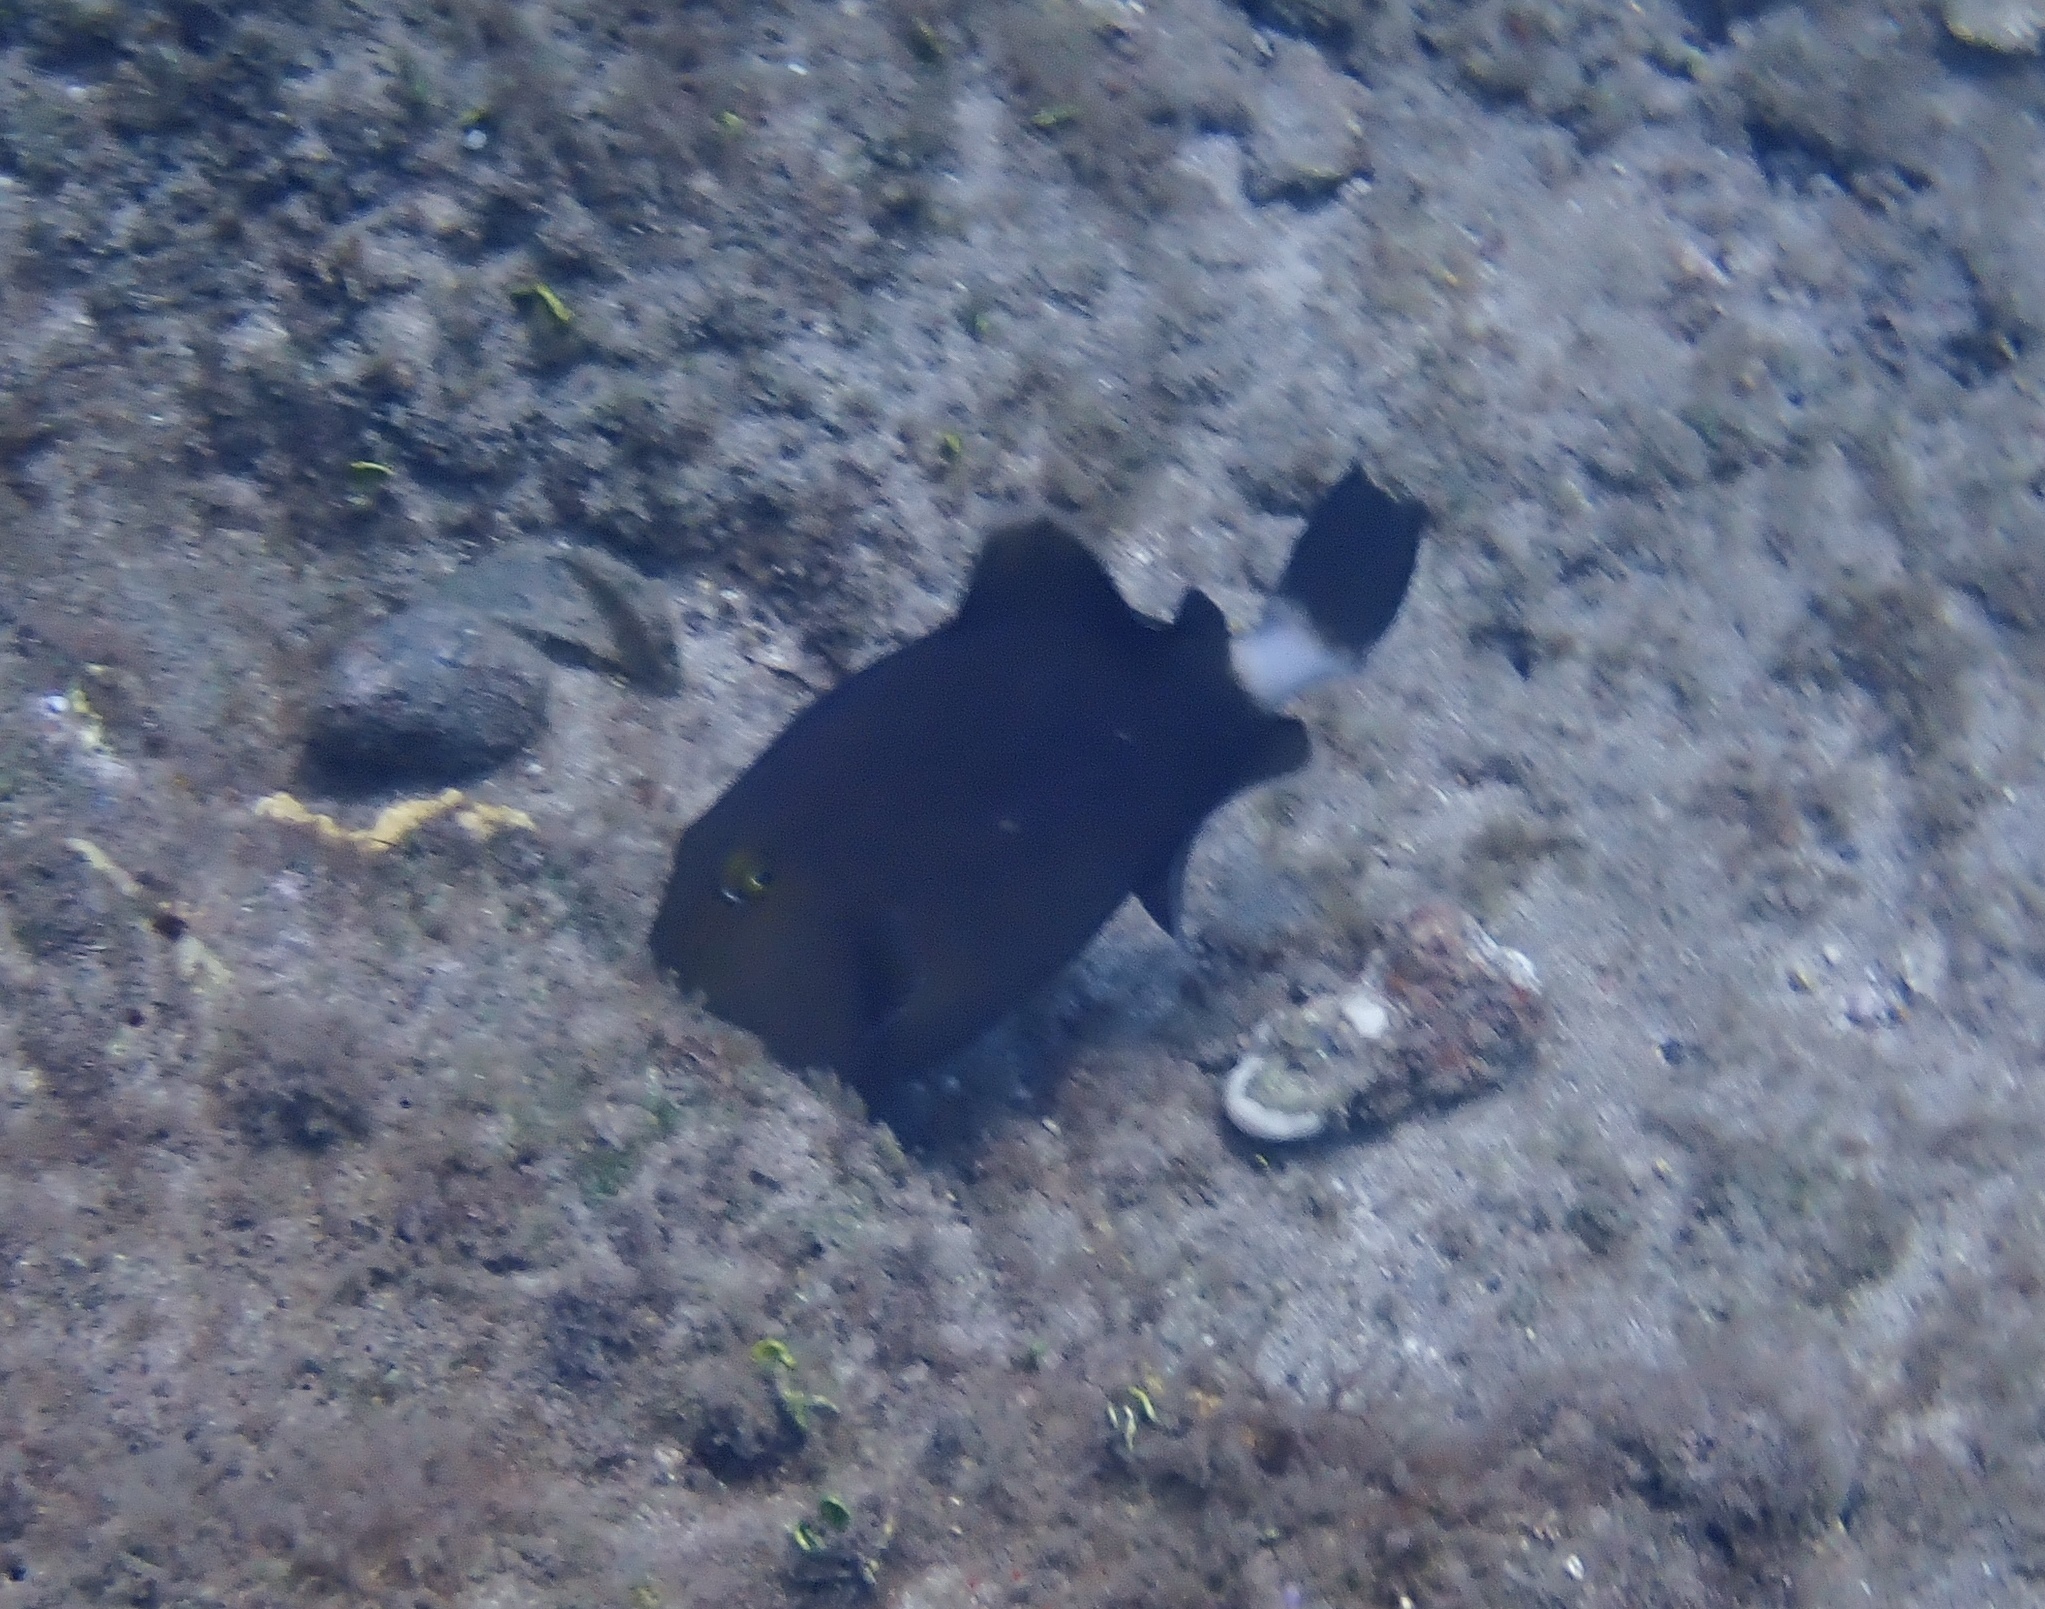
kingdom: Animalia
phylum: Chordata
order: Tetraodontiformes
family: Balistidae
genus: Sufflamen
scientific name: Sufflamen fraenatum
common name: Bridle triggerfish
